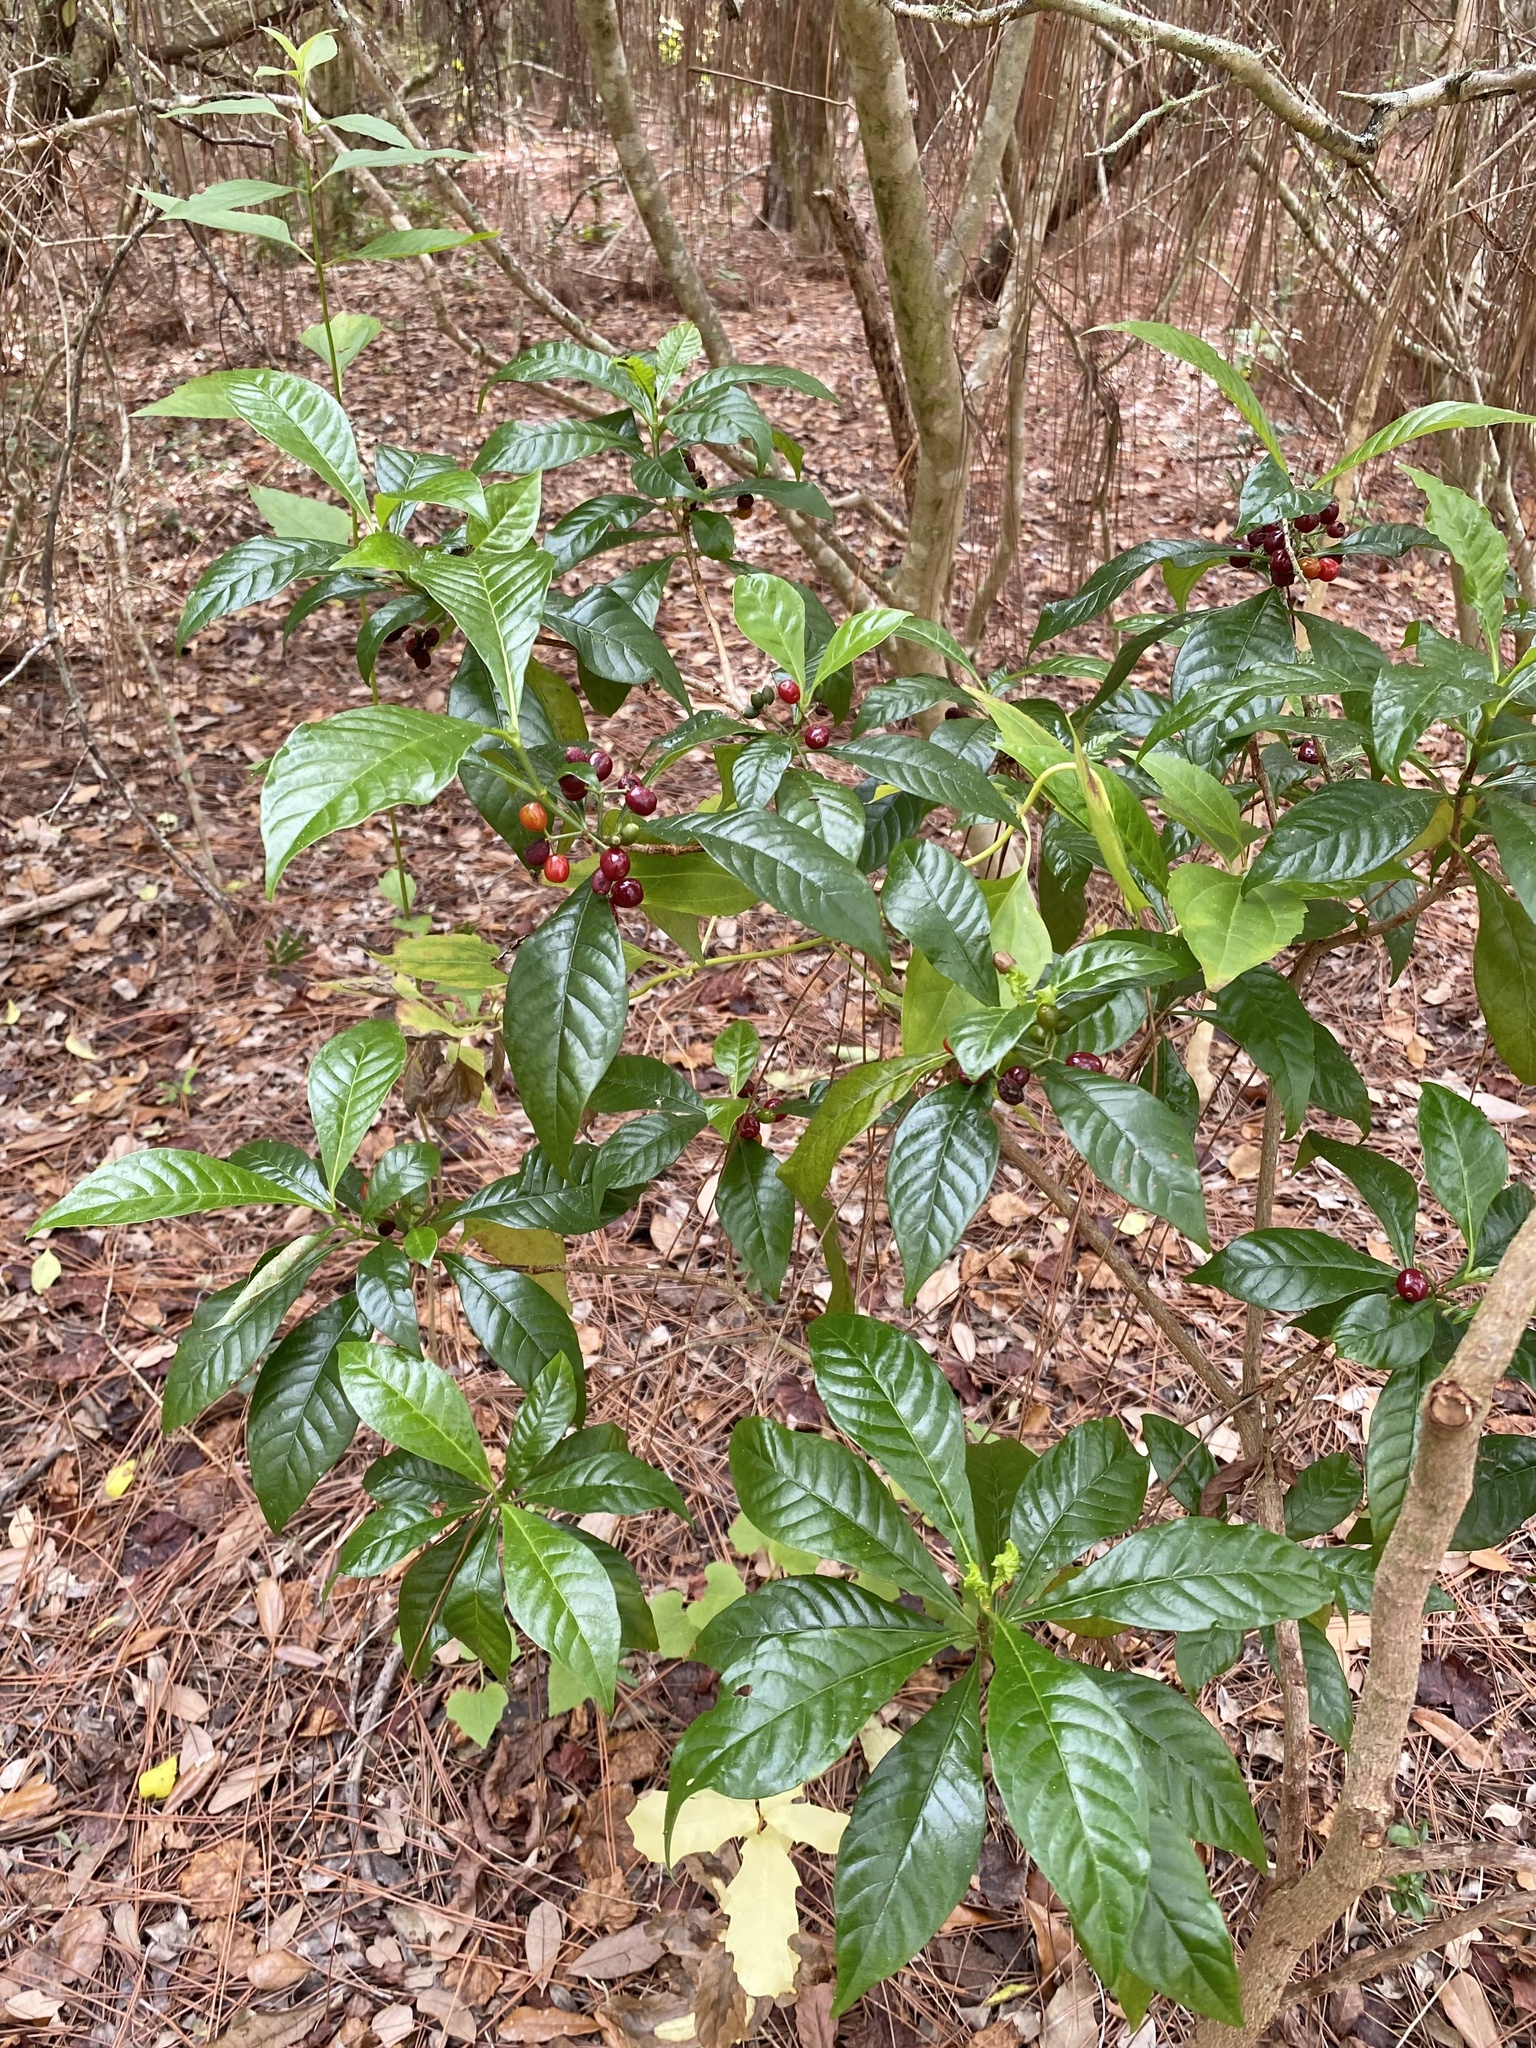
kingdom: Plantae
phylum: Tracheophyta
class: Magnoliopsida
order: Gentianales
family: Rubiaceae
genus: Psychotria
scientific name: Psychotria nervosa
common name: Bastard cankerberry
